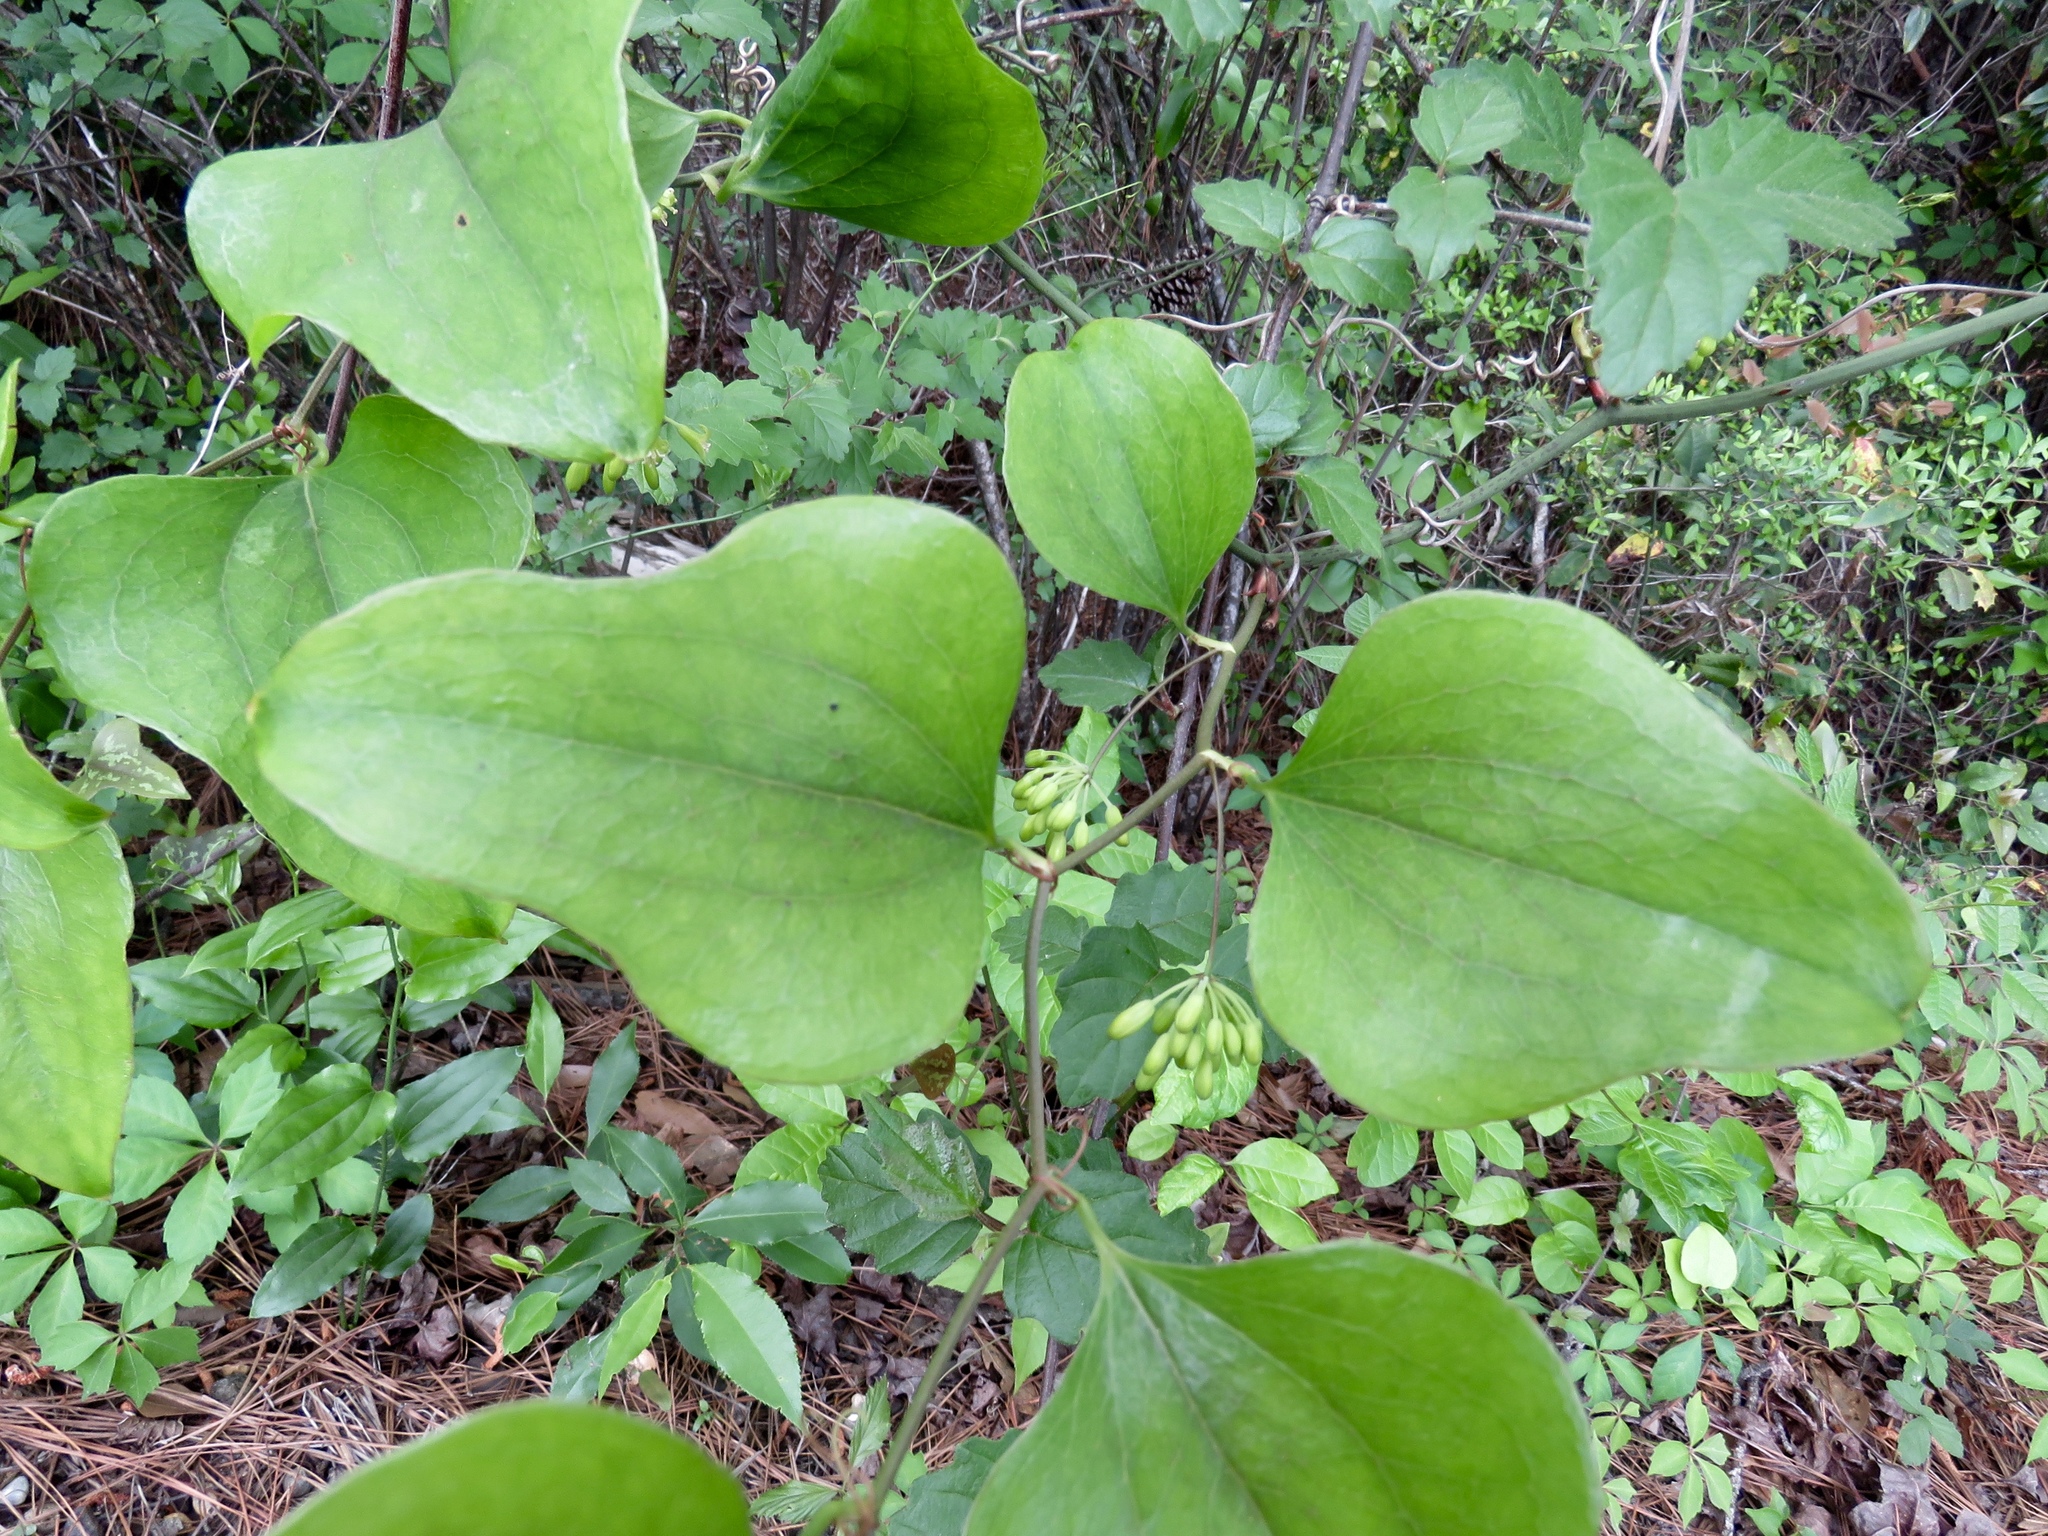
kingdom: Plantae
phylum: Tracheophyta
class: Liliopsida
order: Liliales
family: Smilacaceae
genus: Smilax
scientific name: Smilax bona-nox
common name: Catbrier
